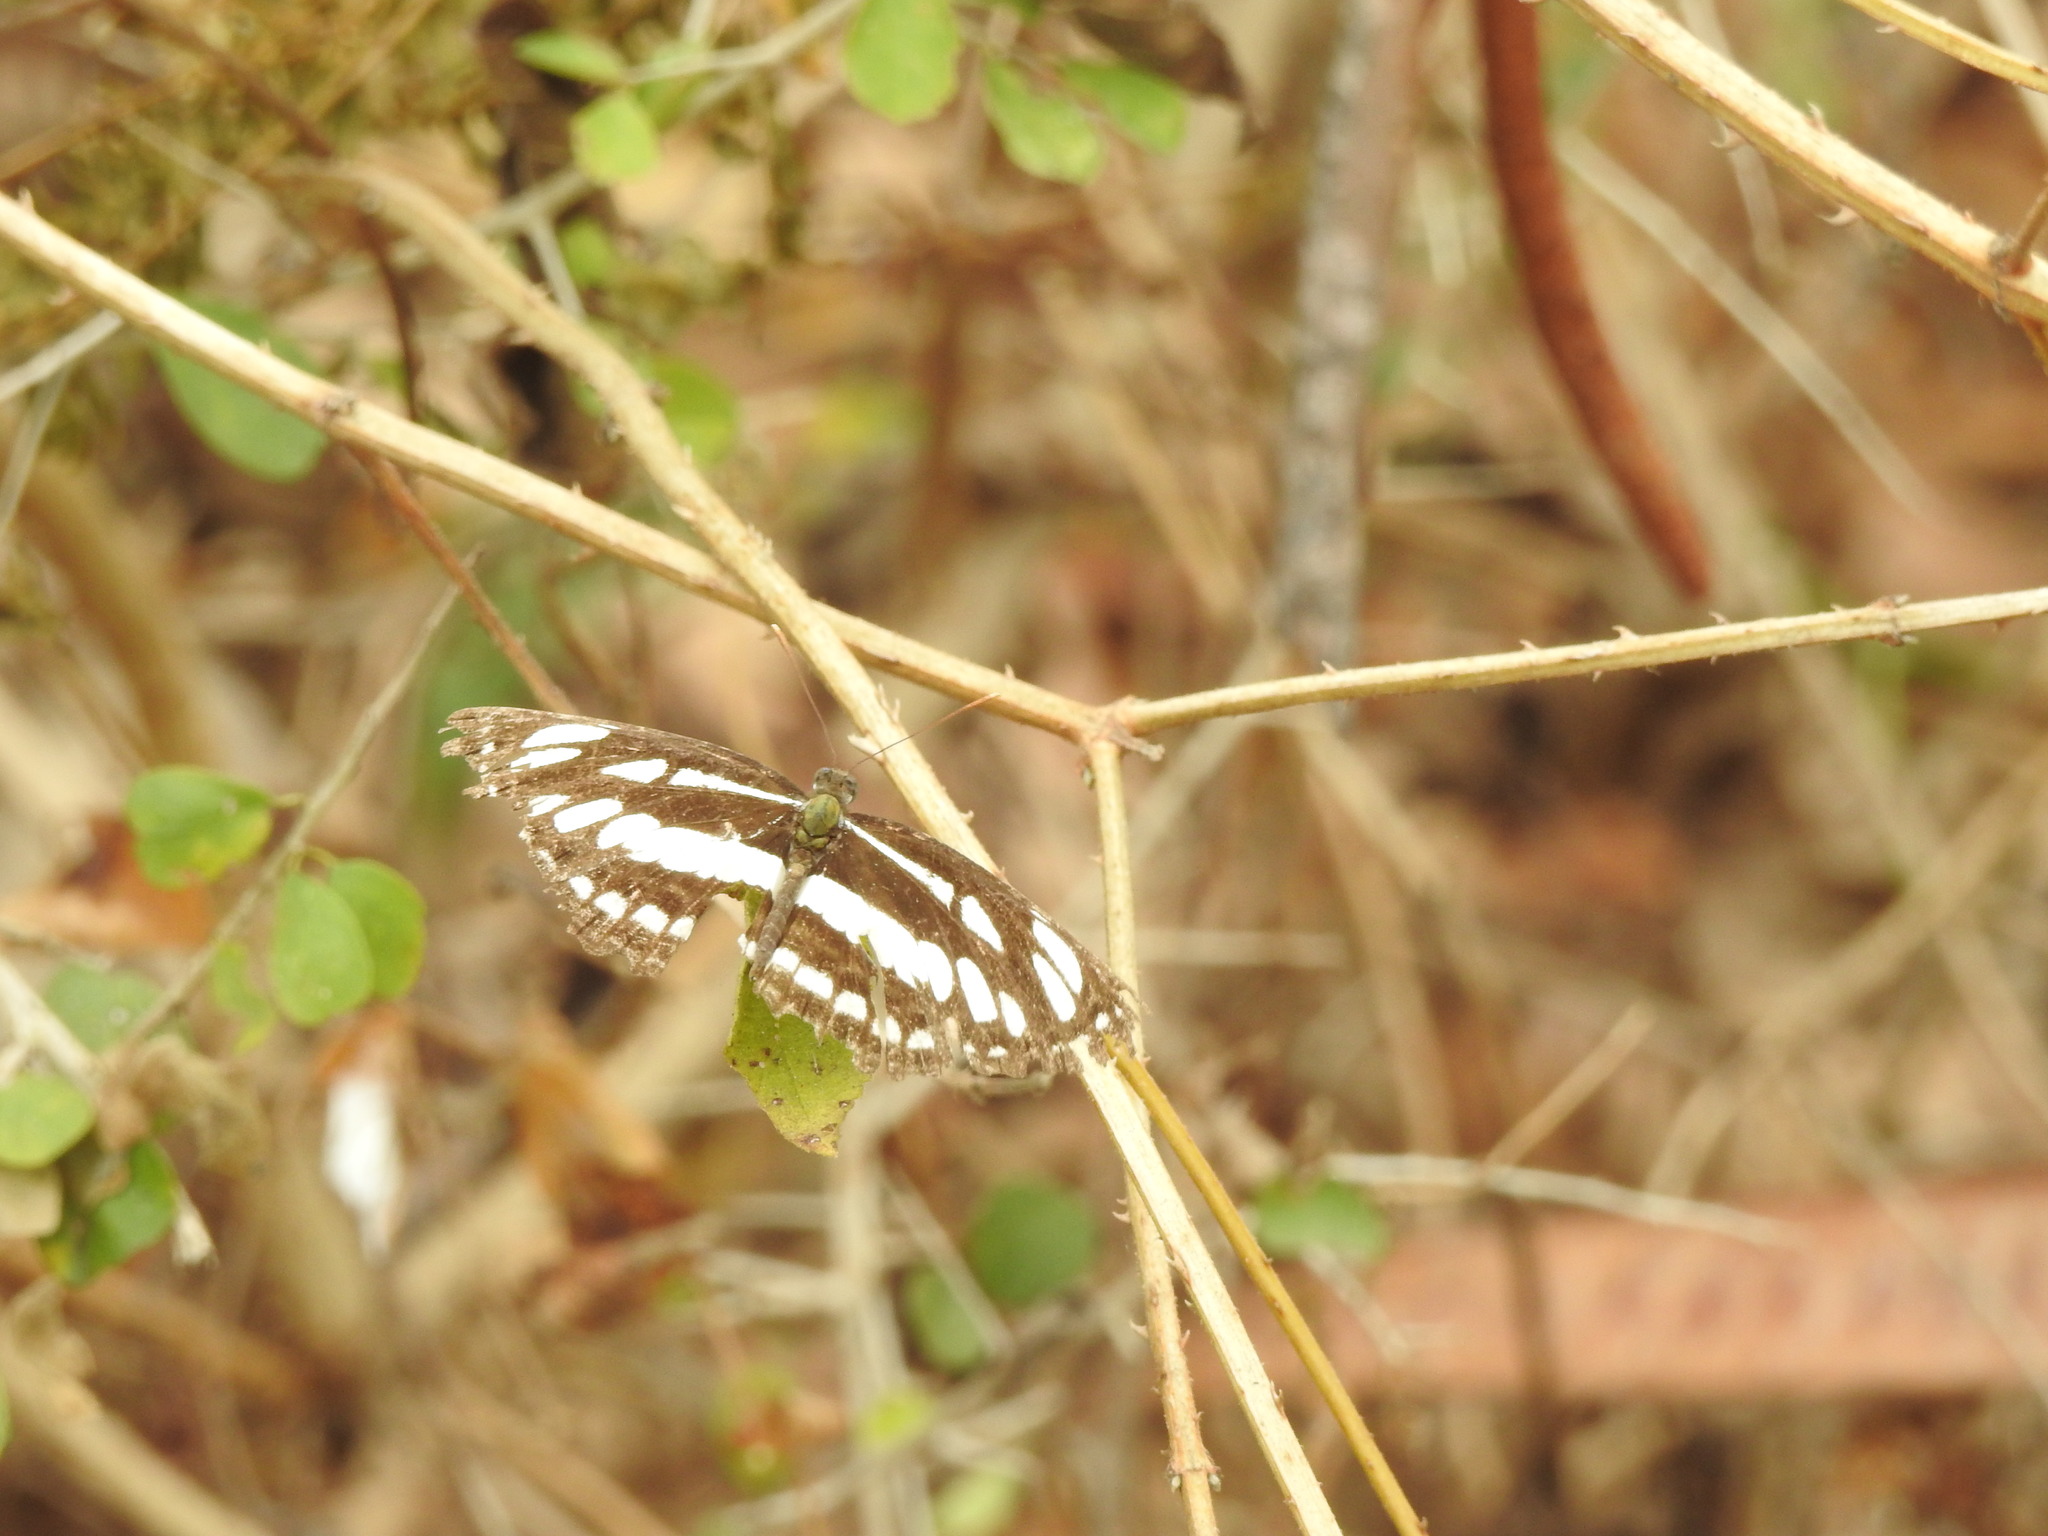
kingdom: Animalia
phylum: Arthropoda
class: Insecta
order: Lepidoptera
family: Nymphalidae
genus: Neptis
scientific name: Neptis hylas
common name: Common sailer
